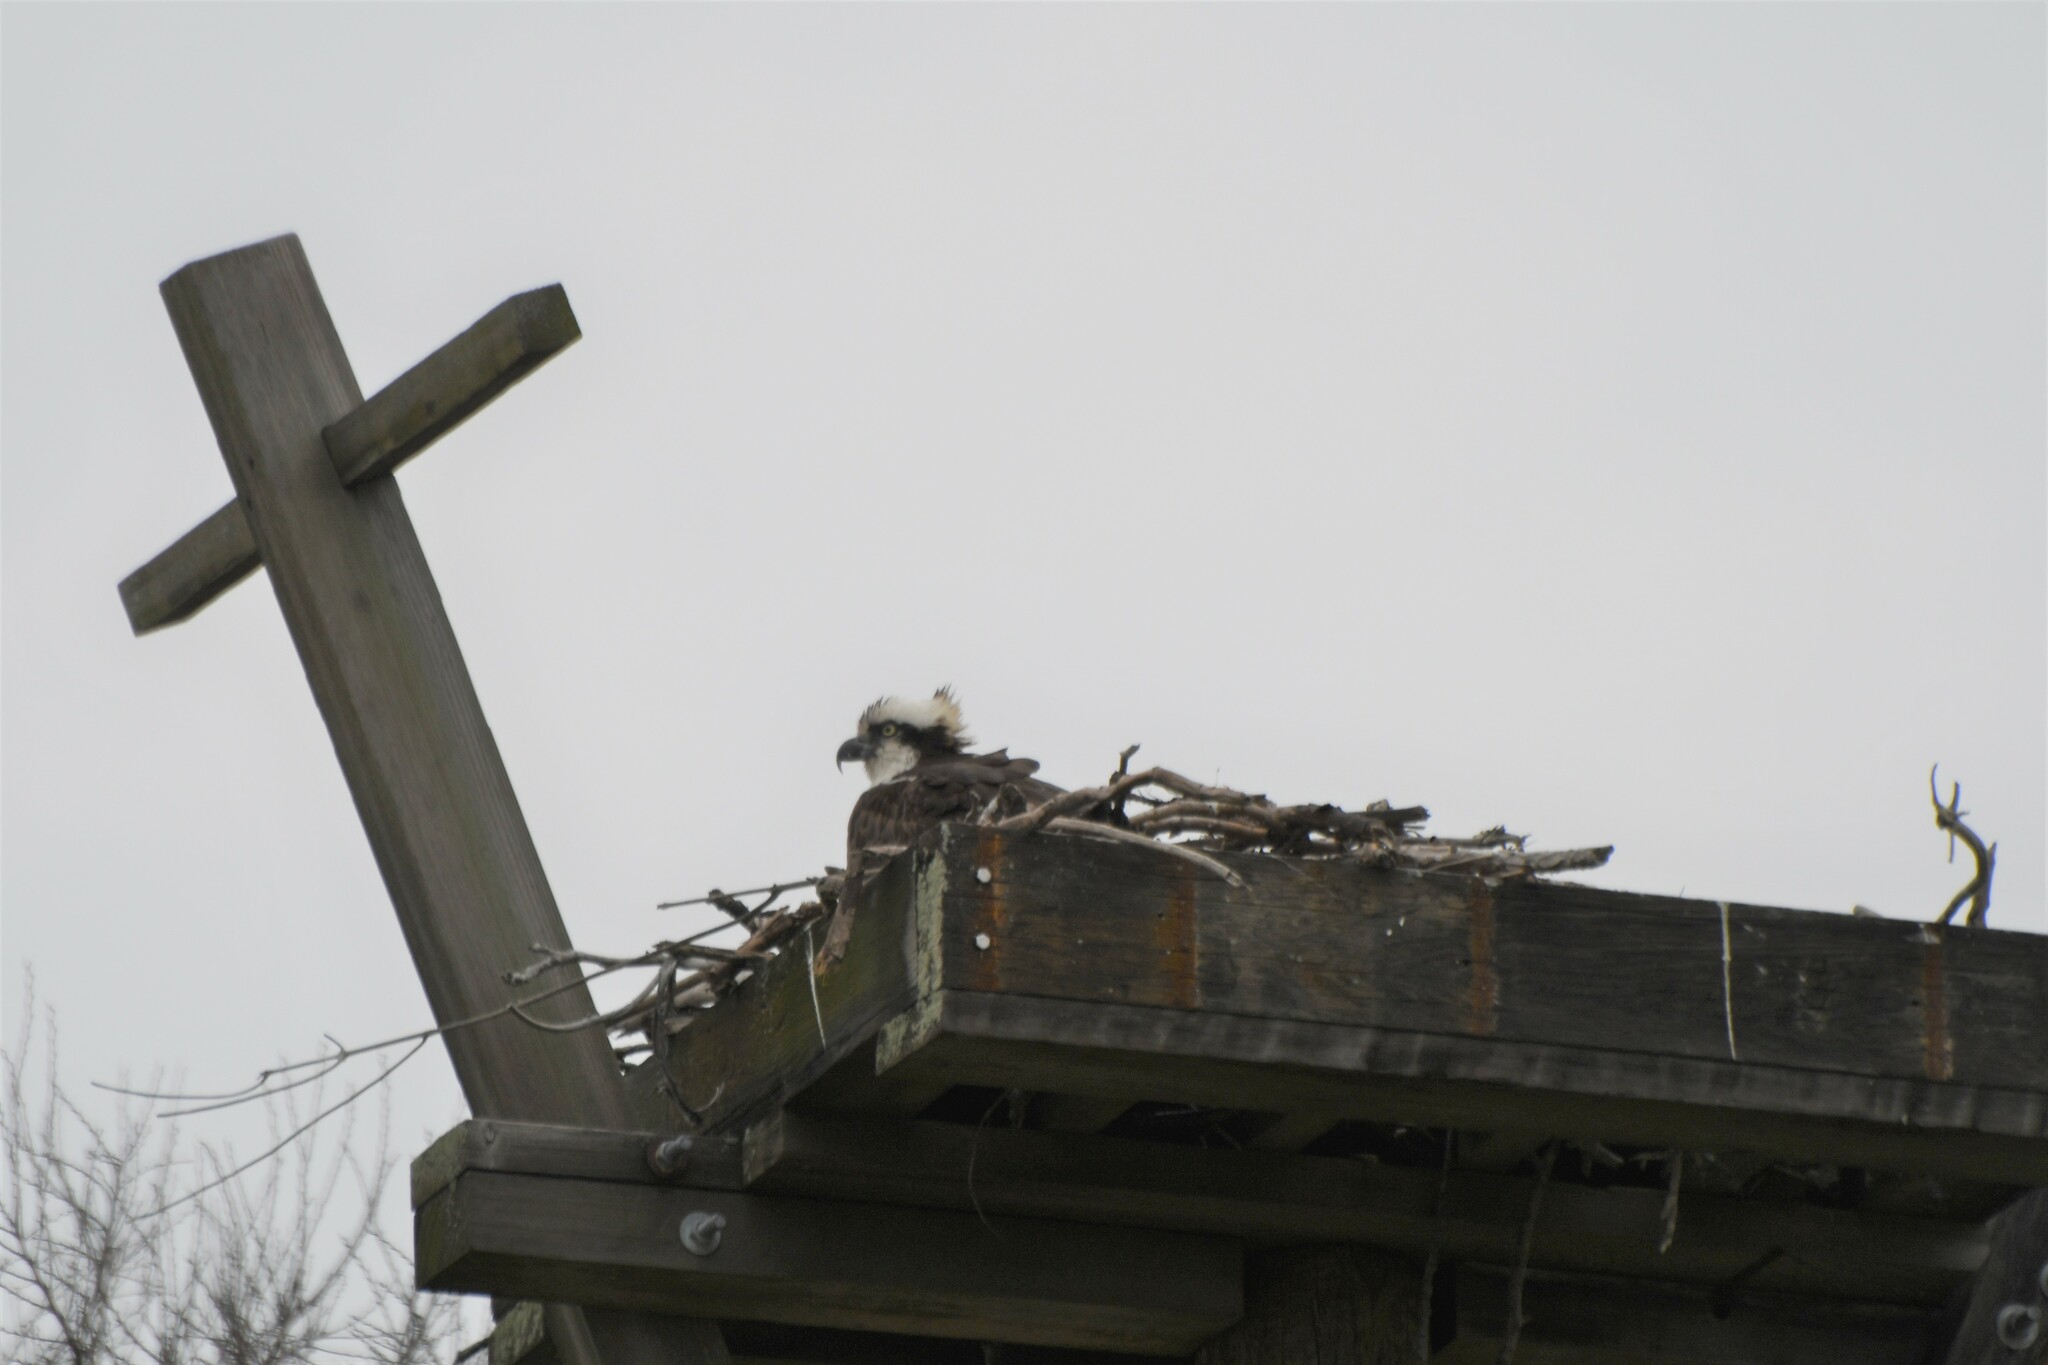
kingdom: Animalia
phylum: Chordata
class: Aves
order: Accipitriformes
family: Pandionidae
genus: Pandion
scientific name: Pandion haliaetus
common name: Osprey
